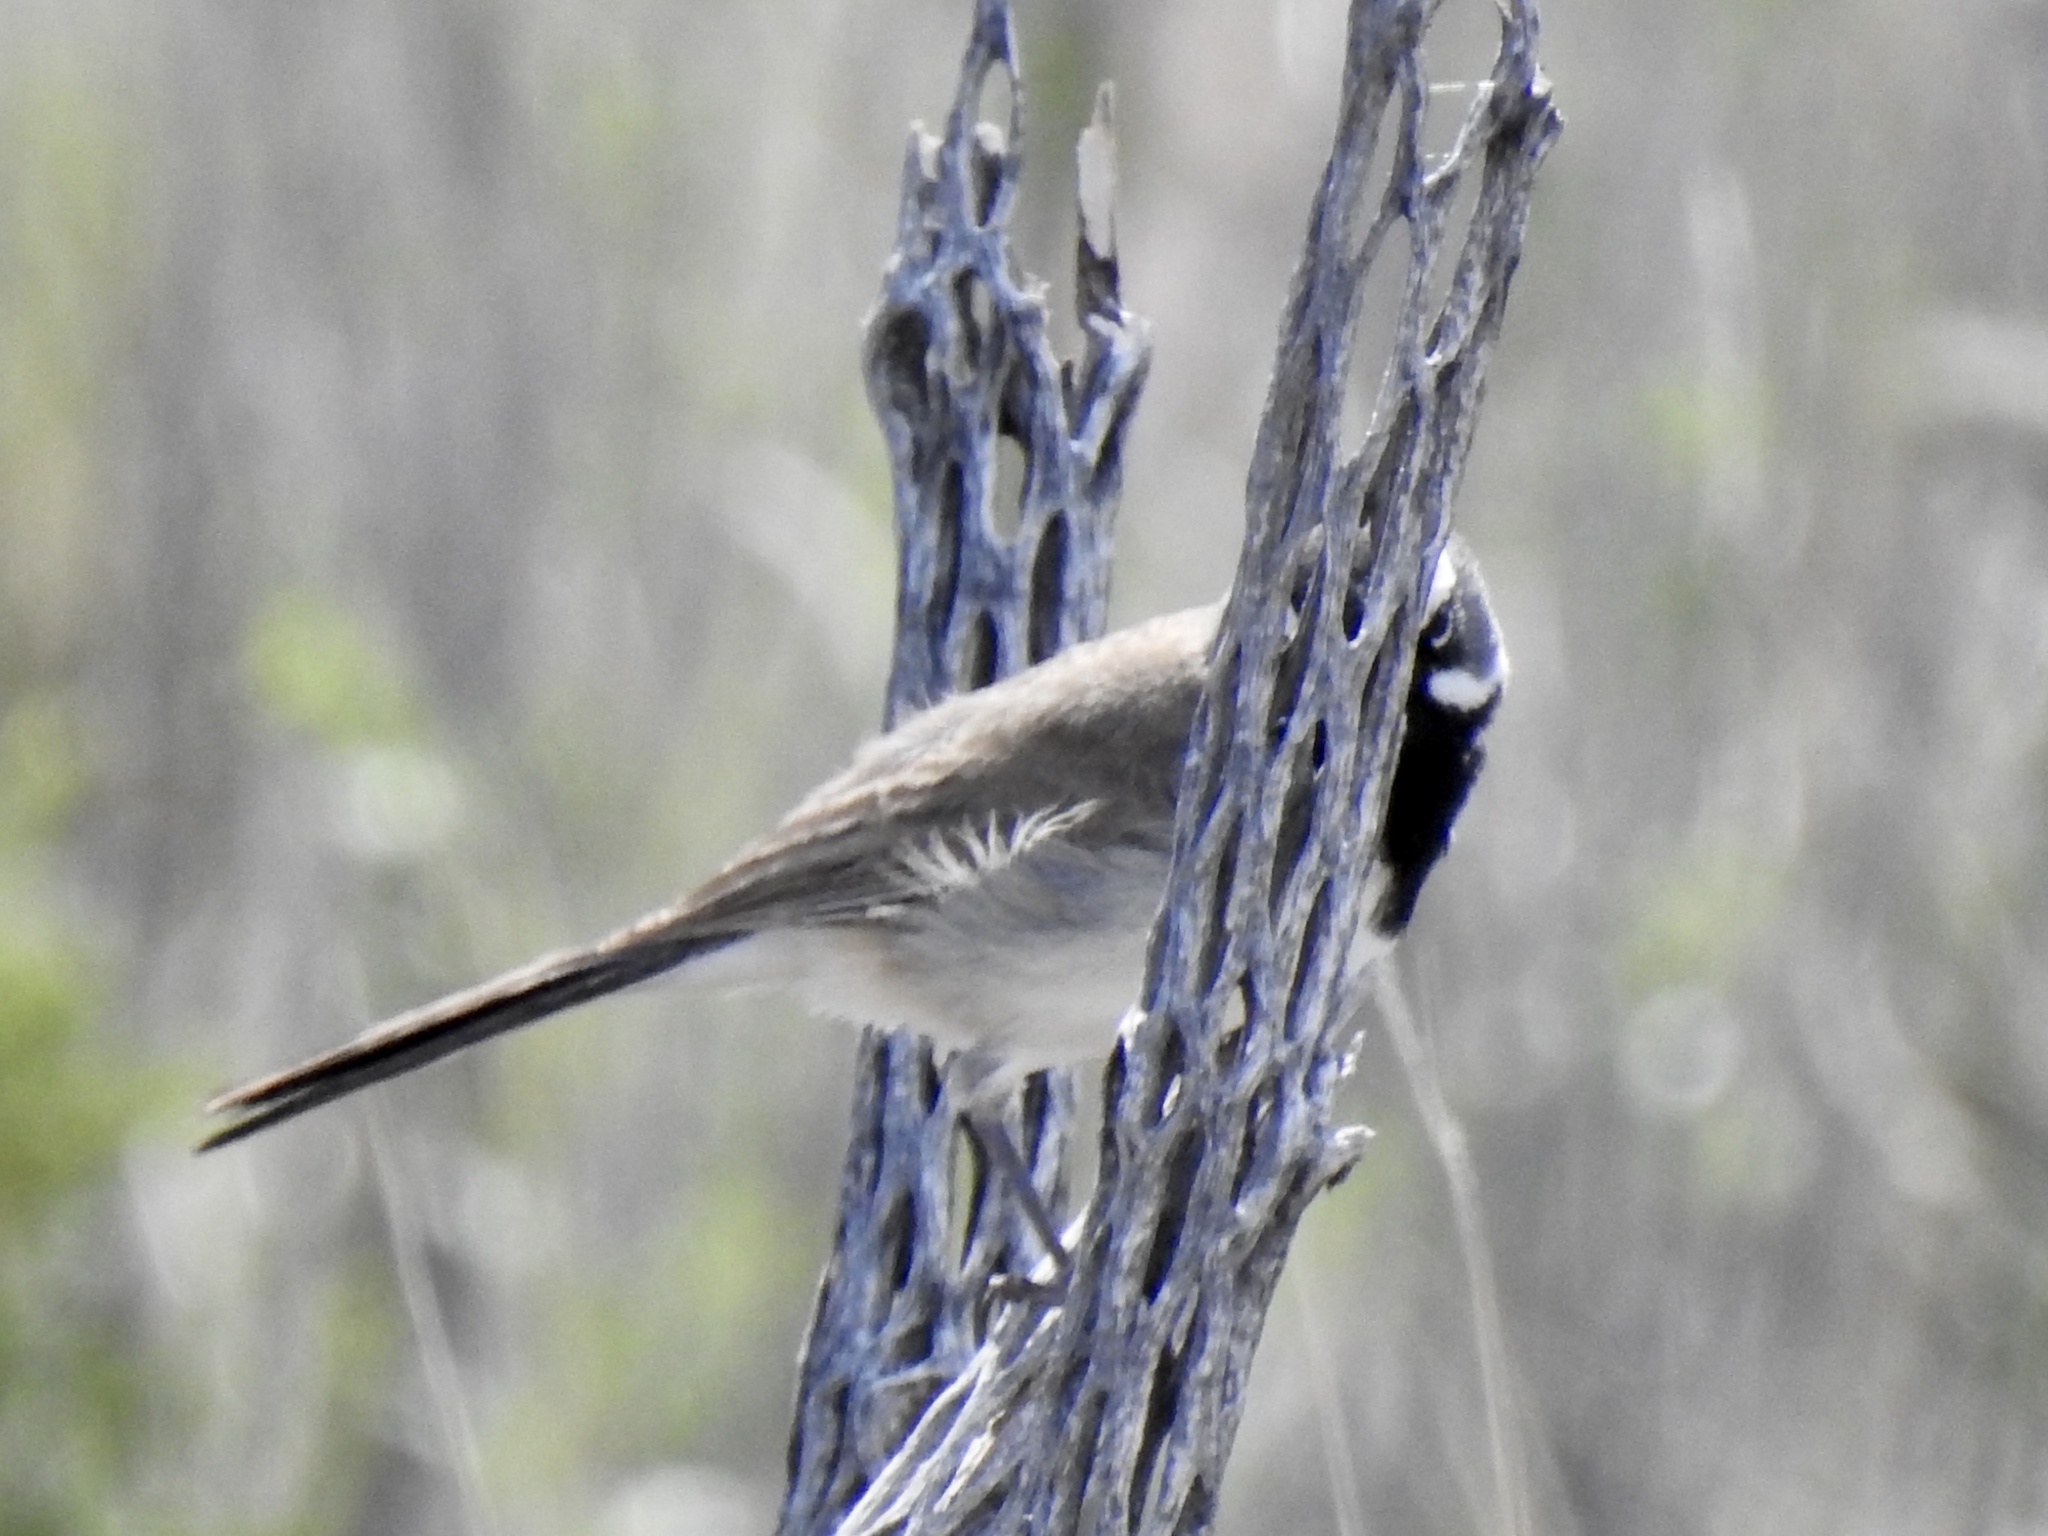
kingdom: Animalia
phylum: Chordata
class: Aves
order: Passeriformes
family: Passerellidae
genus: Amphispiza
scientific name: Amphispiza bilineata
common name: Black-throated sparrow
